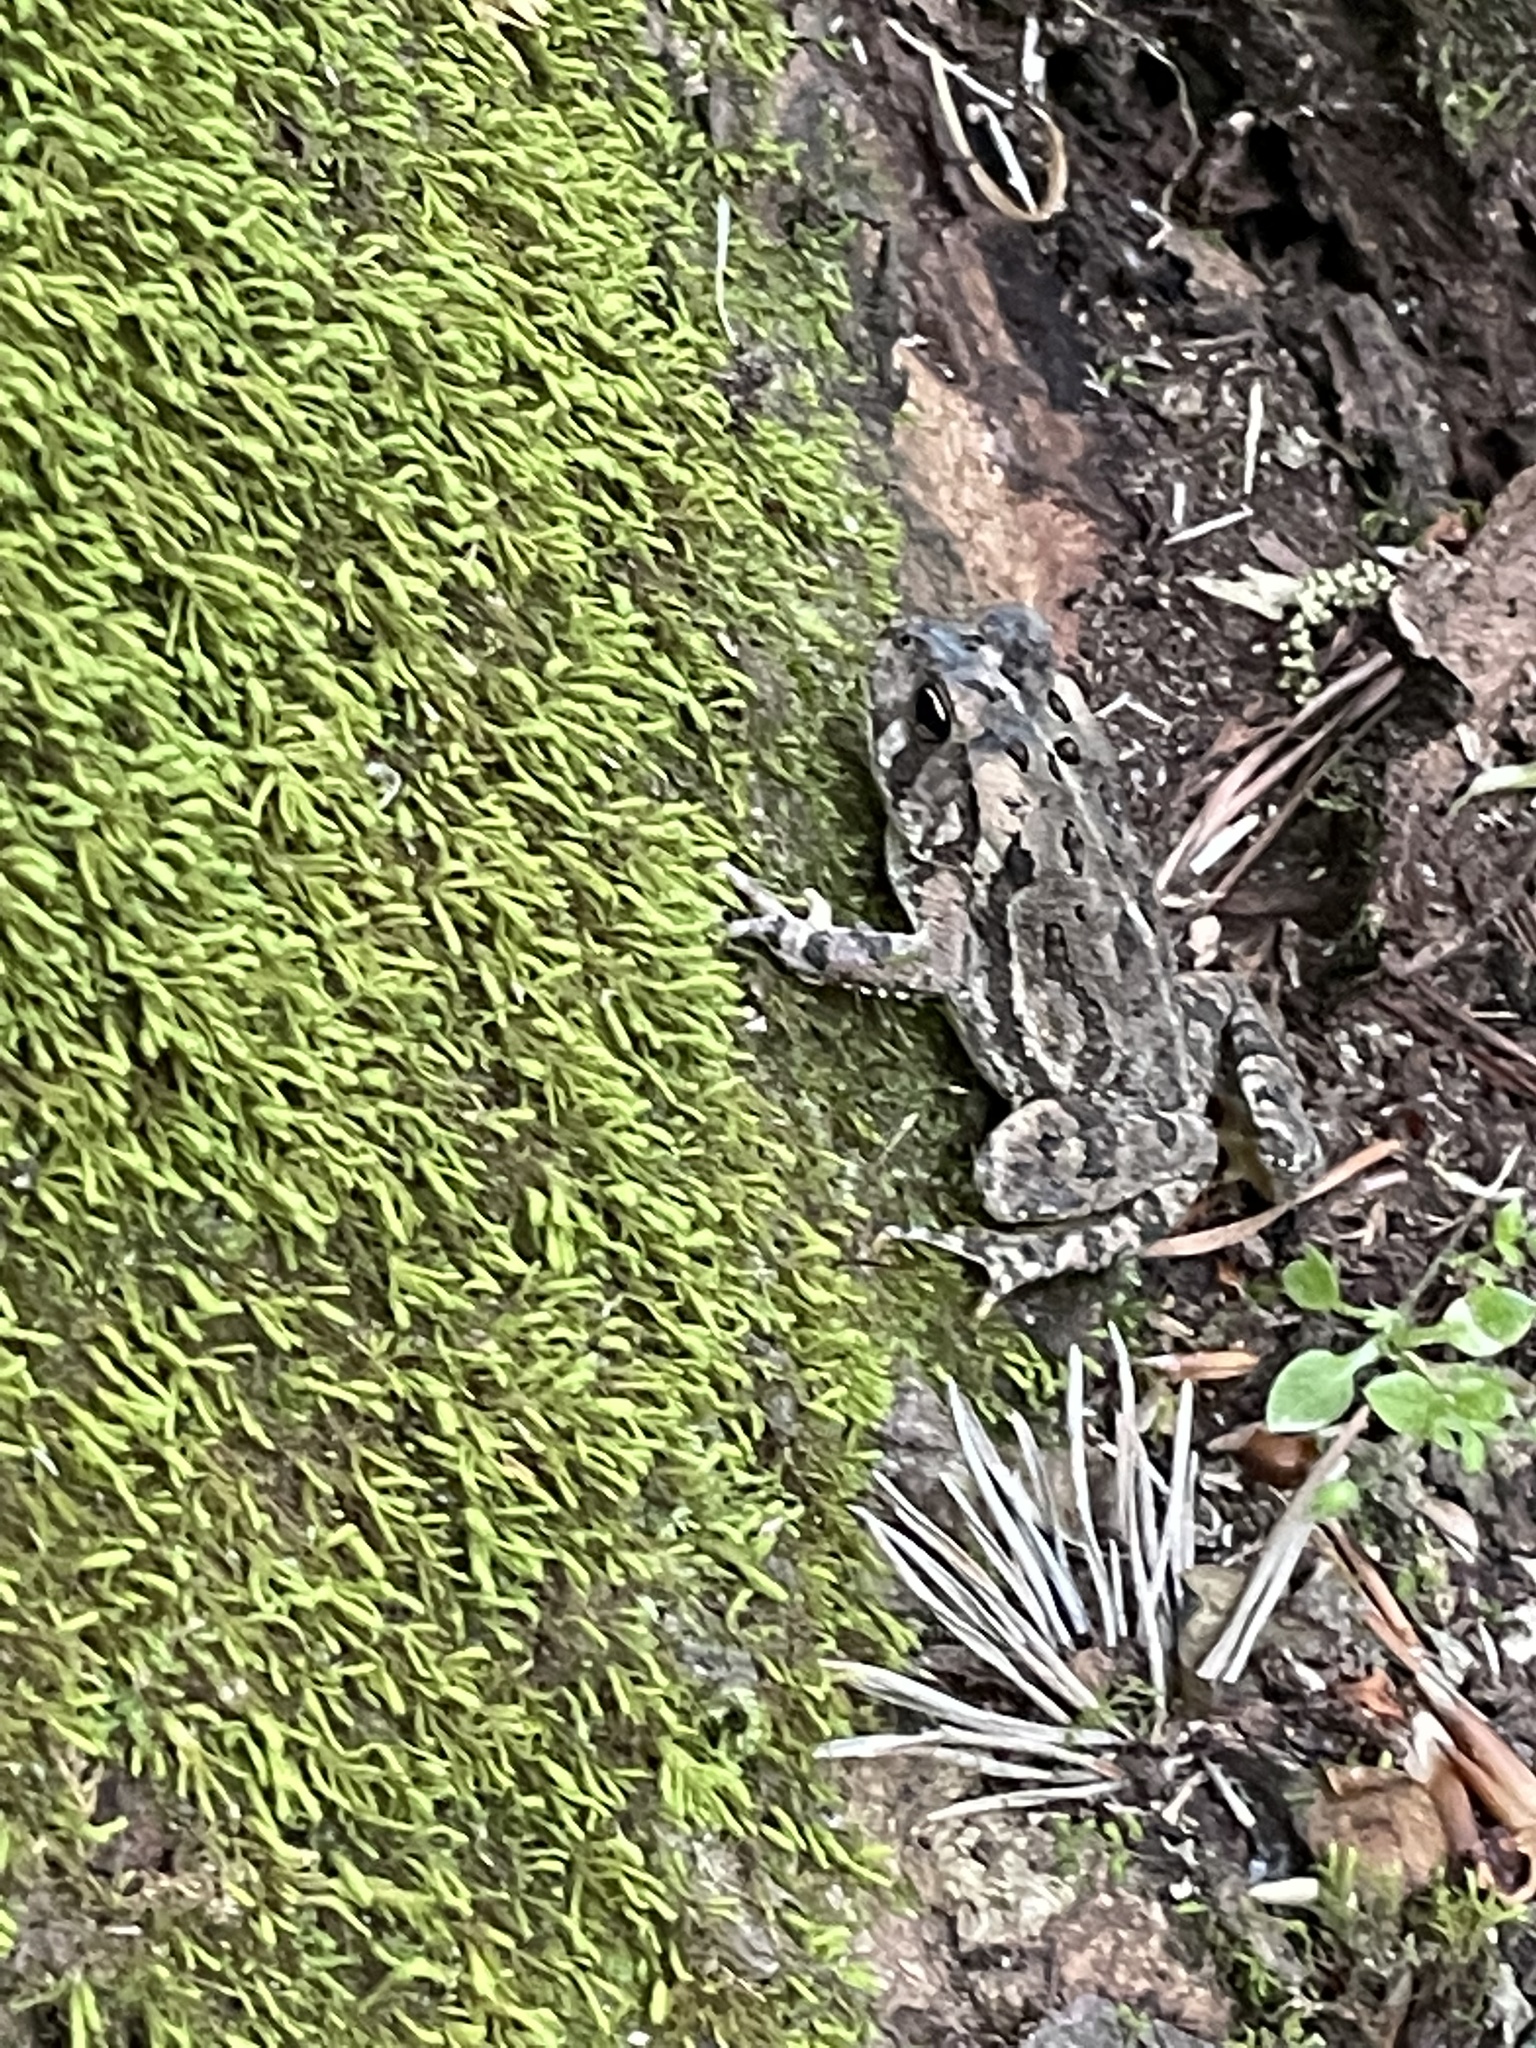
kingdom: Animalia
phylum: Chordata
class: Amphibia
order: Anura
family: Bufonidae
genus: Anaxyrus
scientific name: Anaxyrus fowleri
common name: Fowler's toad
